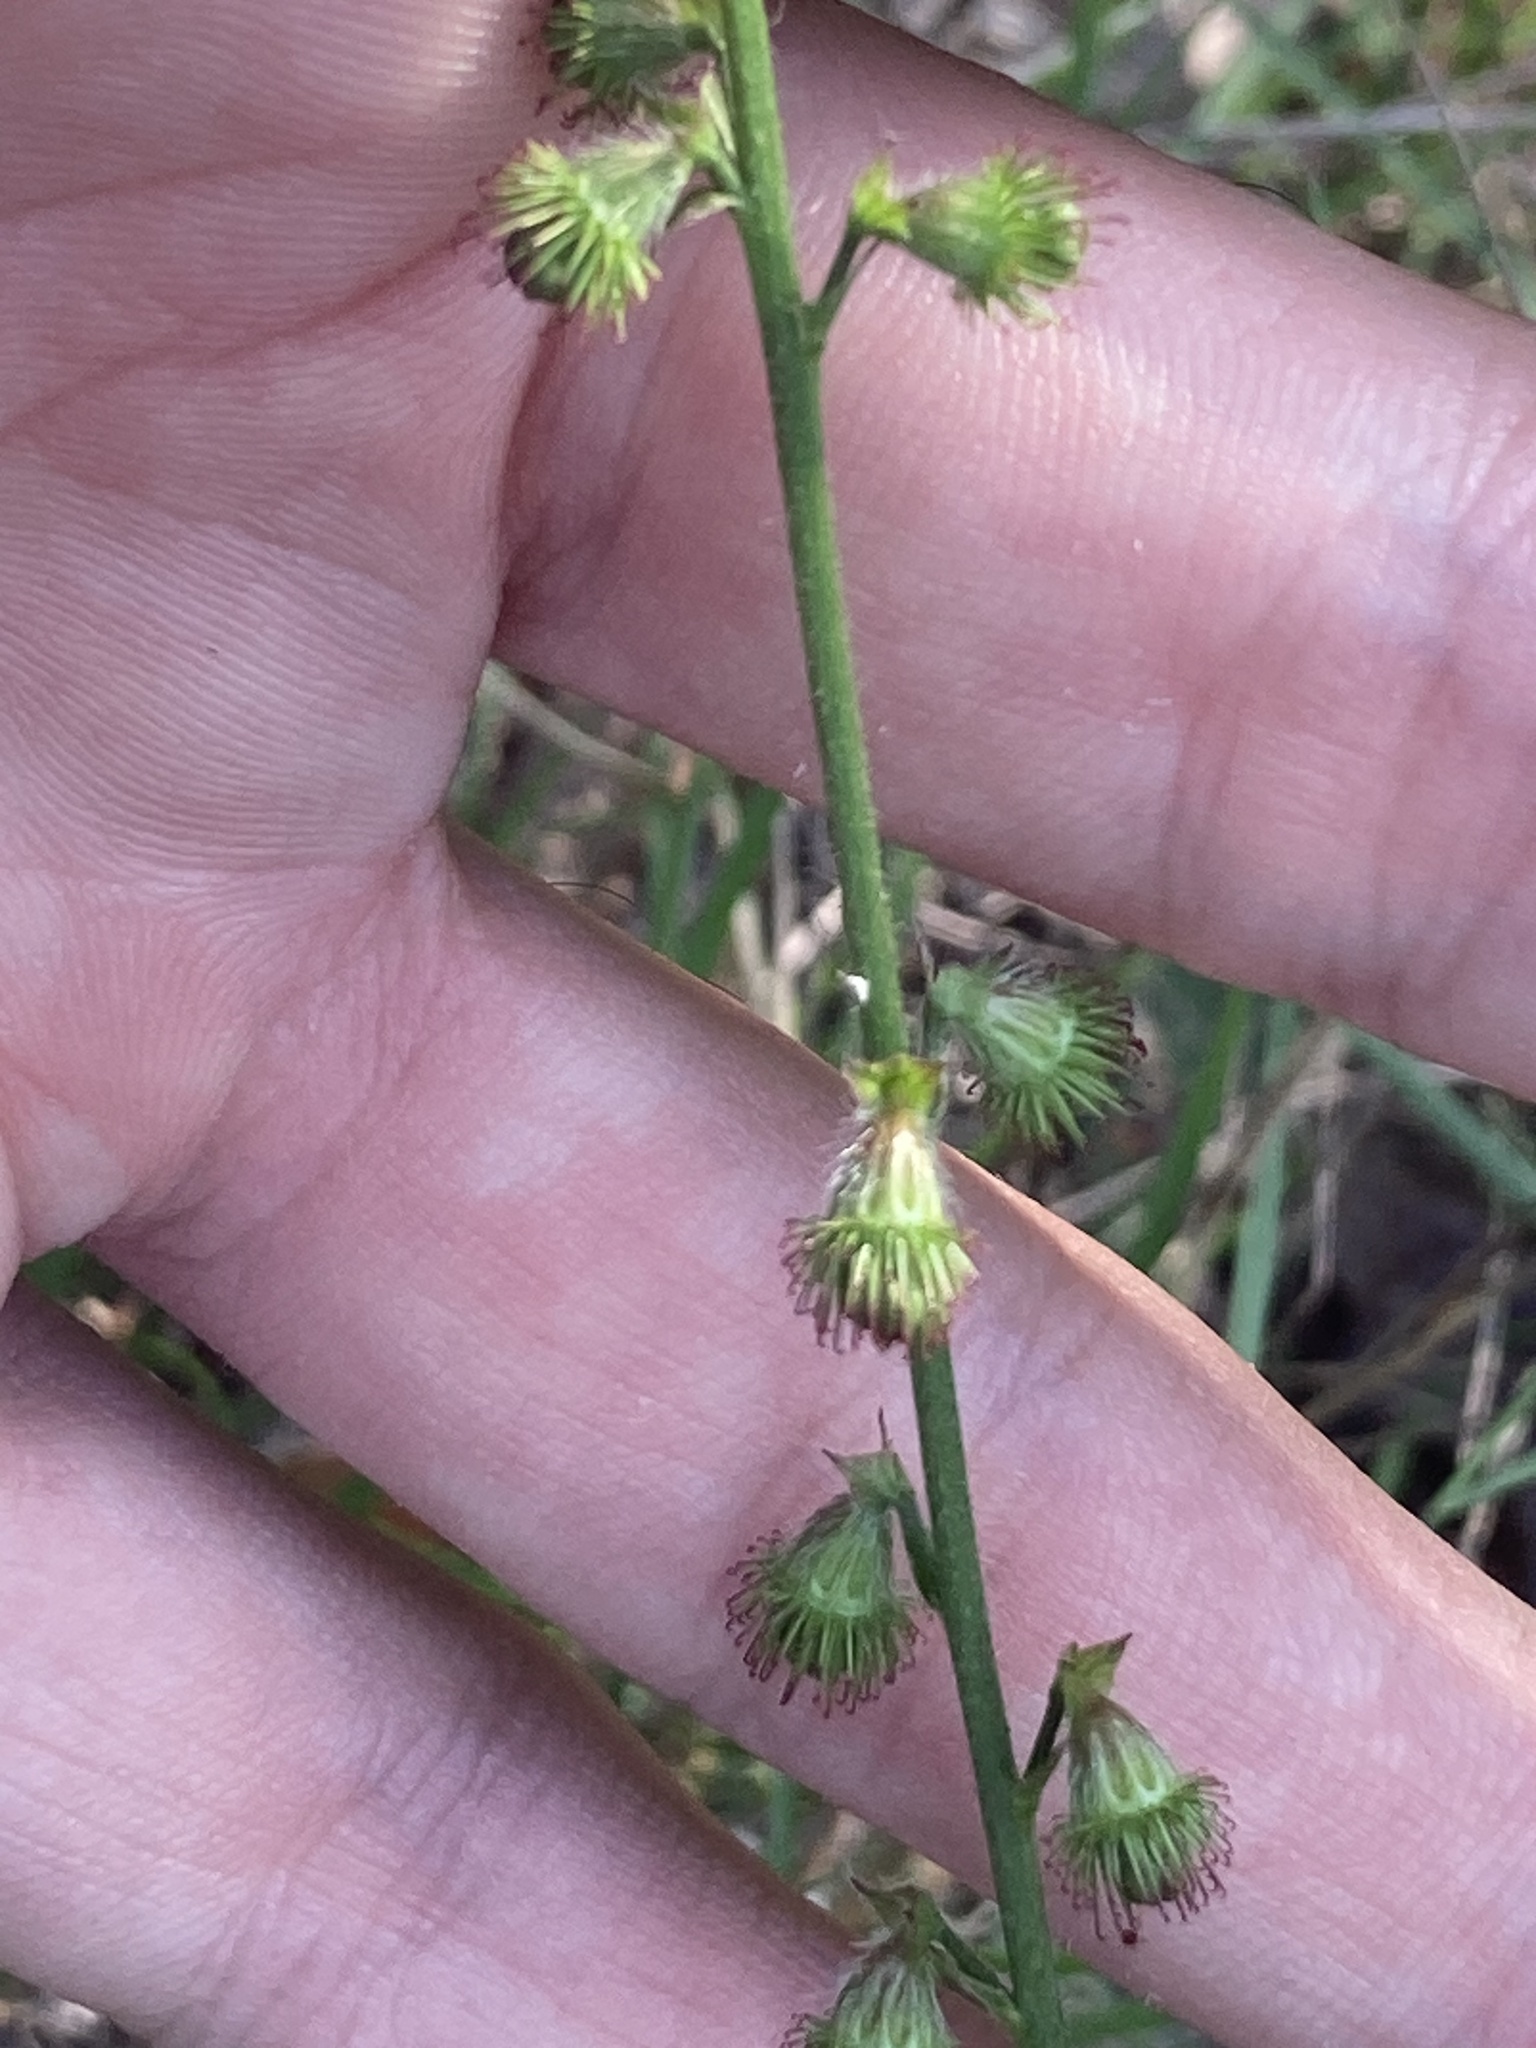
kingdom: Plantae
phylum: Tracheophyta
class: Magnoliopsida
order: Rosales
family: Rosaceae
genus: Agrimonia
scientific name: Agrimonia eupatoria
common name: Agrimony
